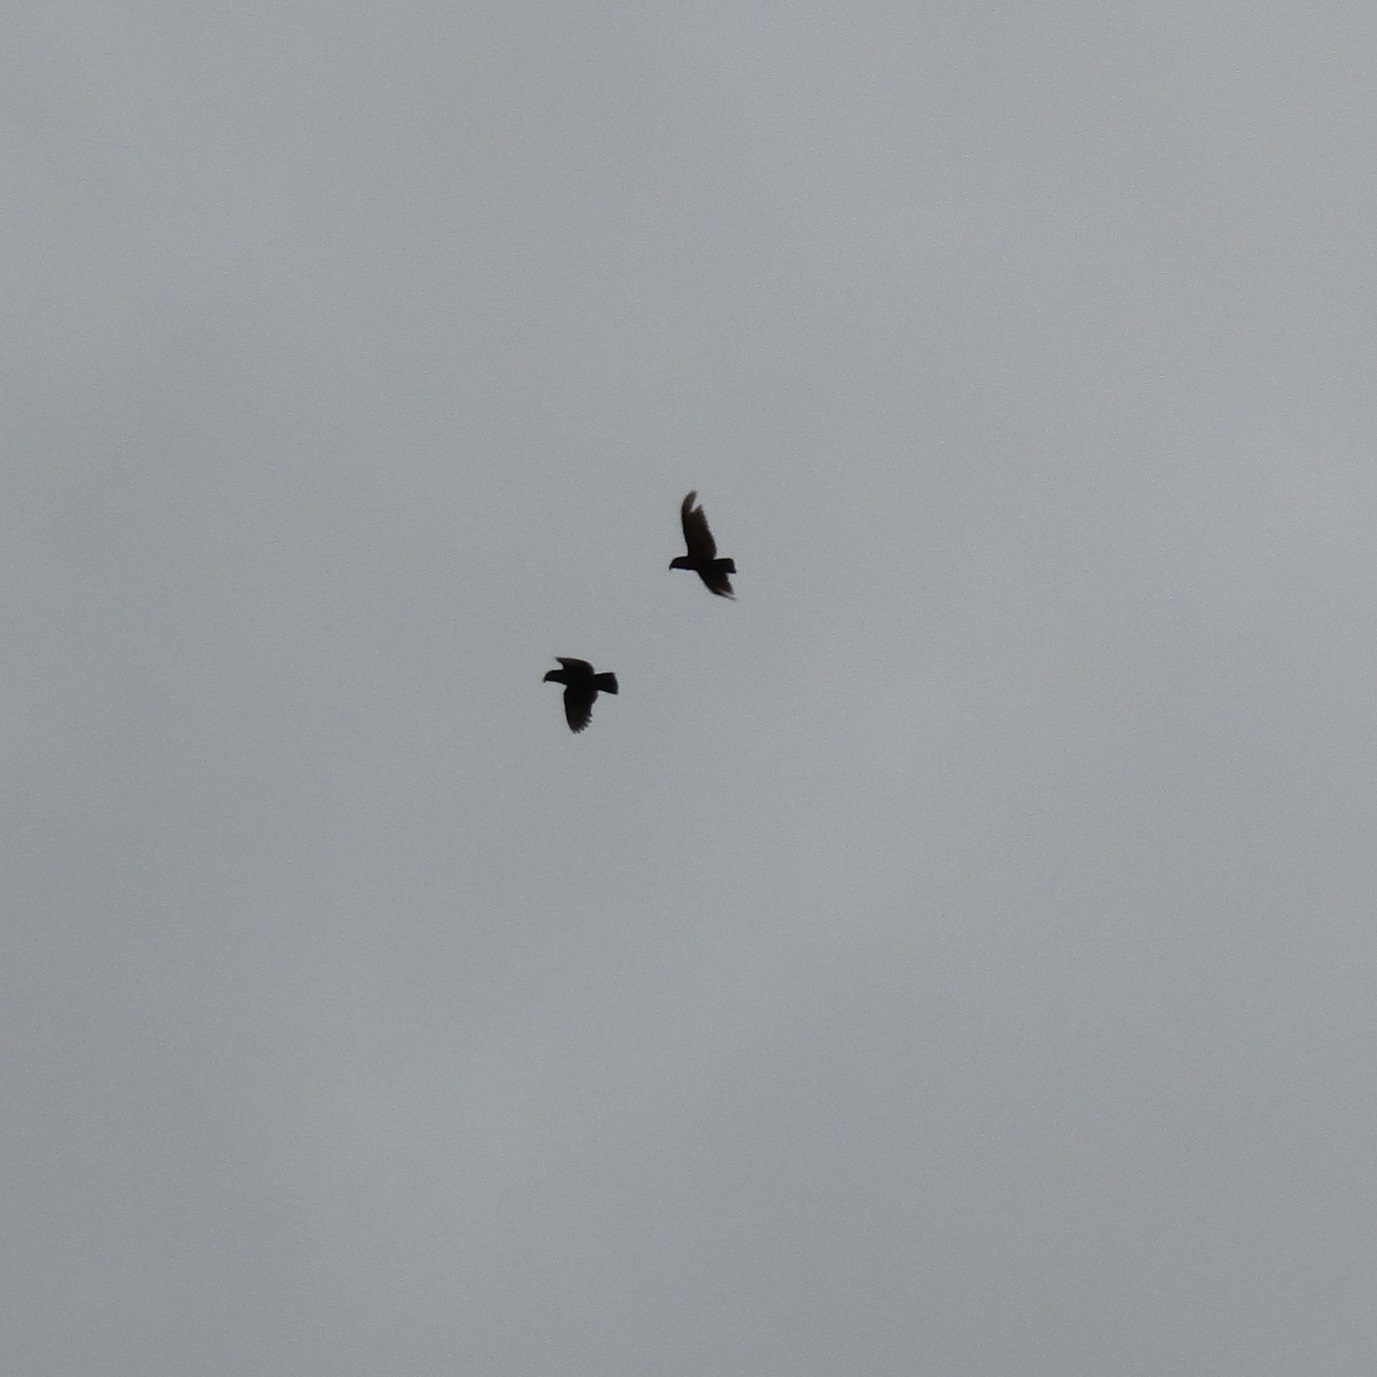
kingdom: Animalia
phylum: Chordata
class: Aves
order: Psittaciformes
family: Psittacidae
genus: Nestor
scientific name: Nestor meridionalis
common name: New zealand kaka
